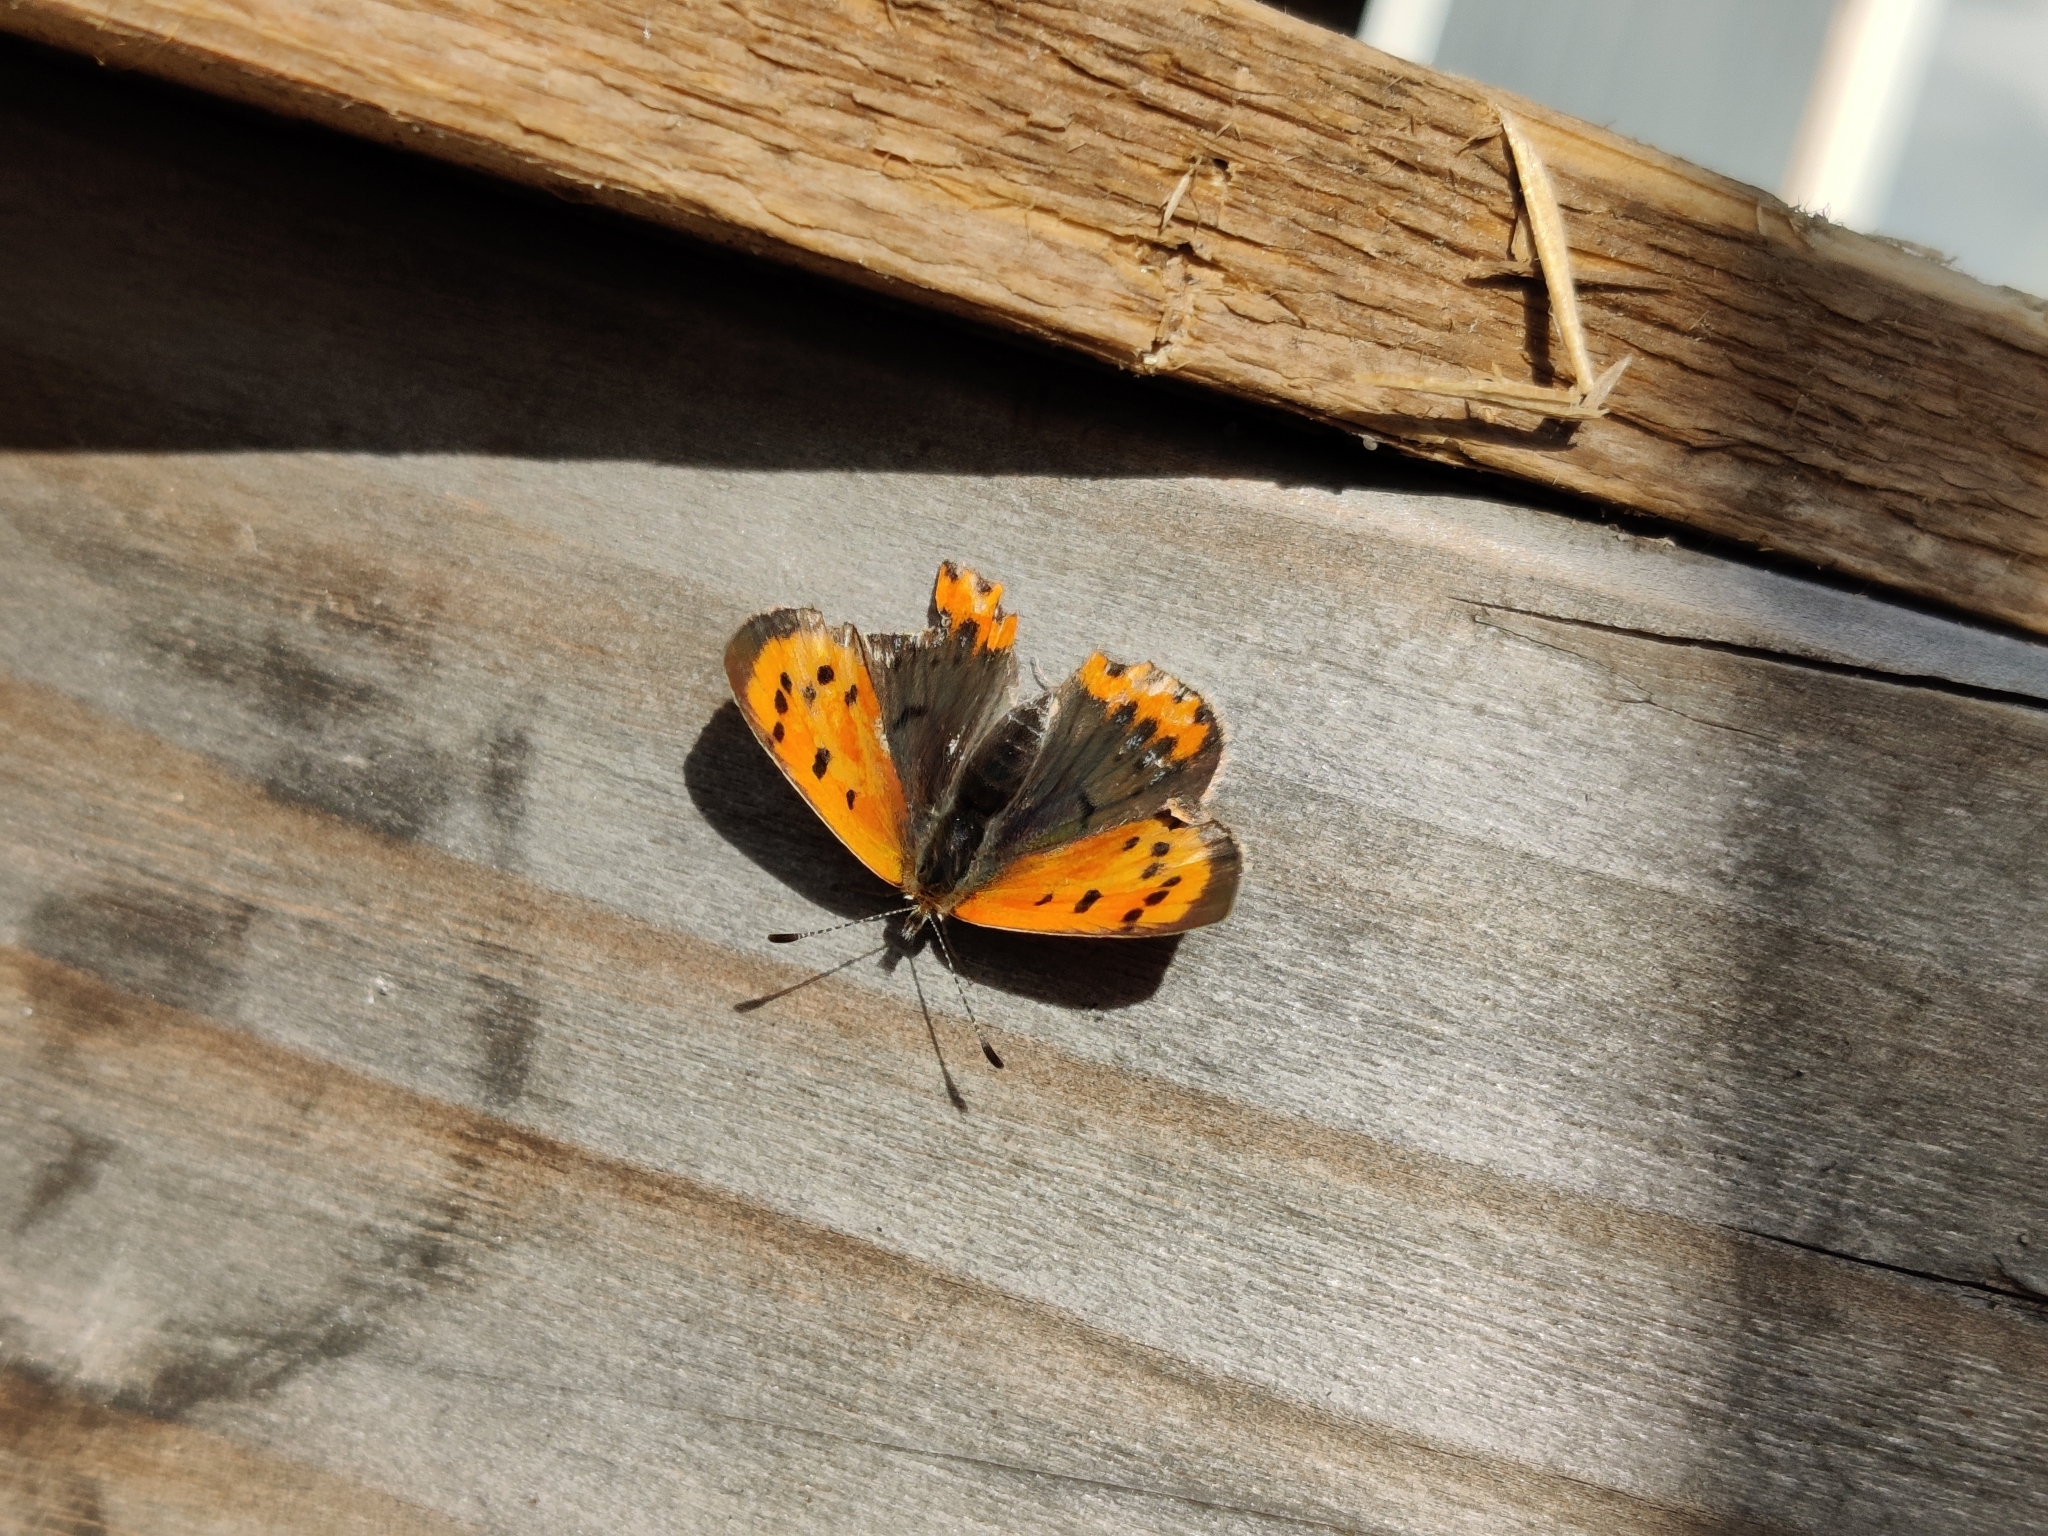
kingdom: Animalia
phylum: Arthropoda
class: Insecta
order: Lepidoptera
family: Lycaenidae
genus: Lycaena
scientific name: Lycaena phlaeas
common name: Small copper
